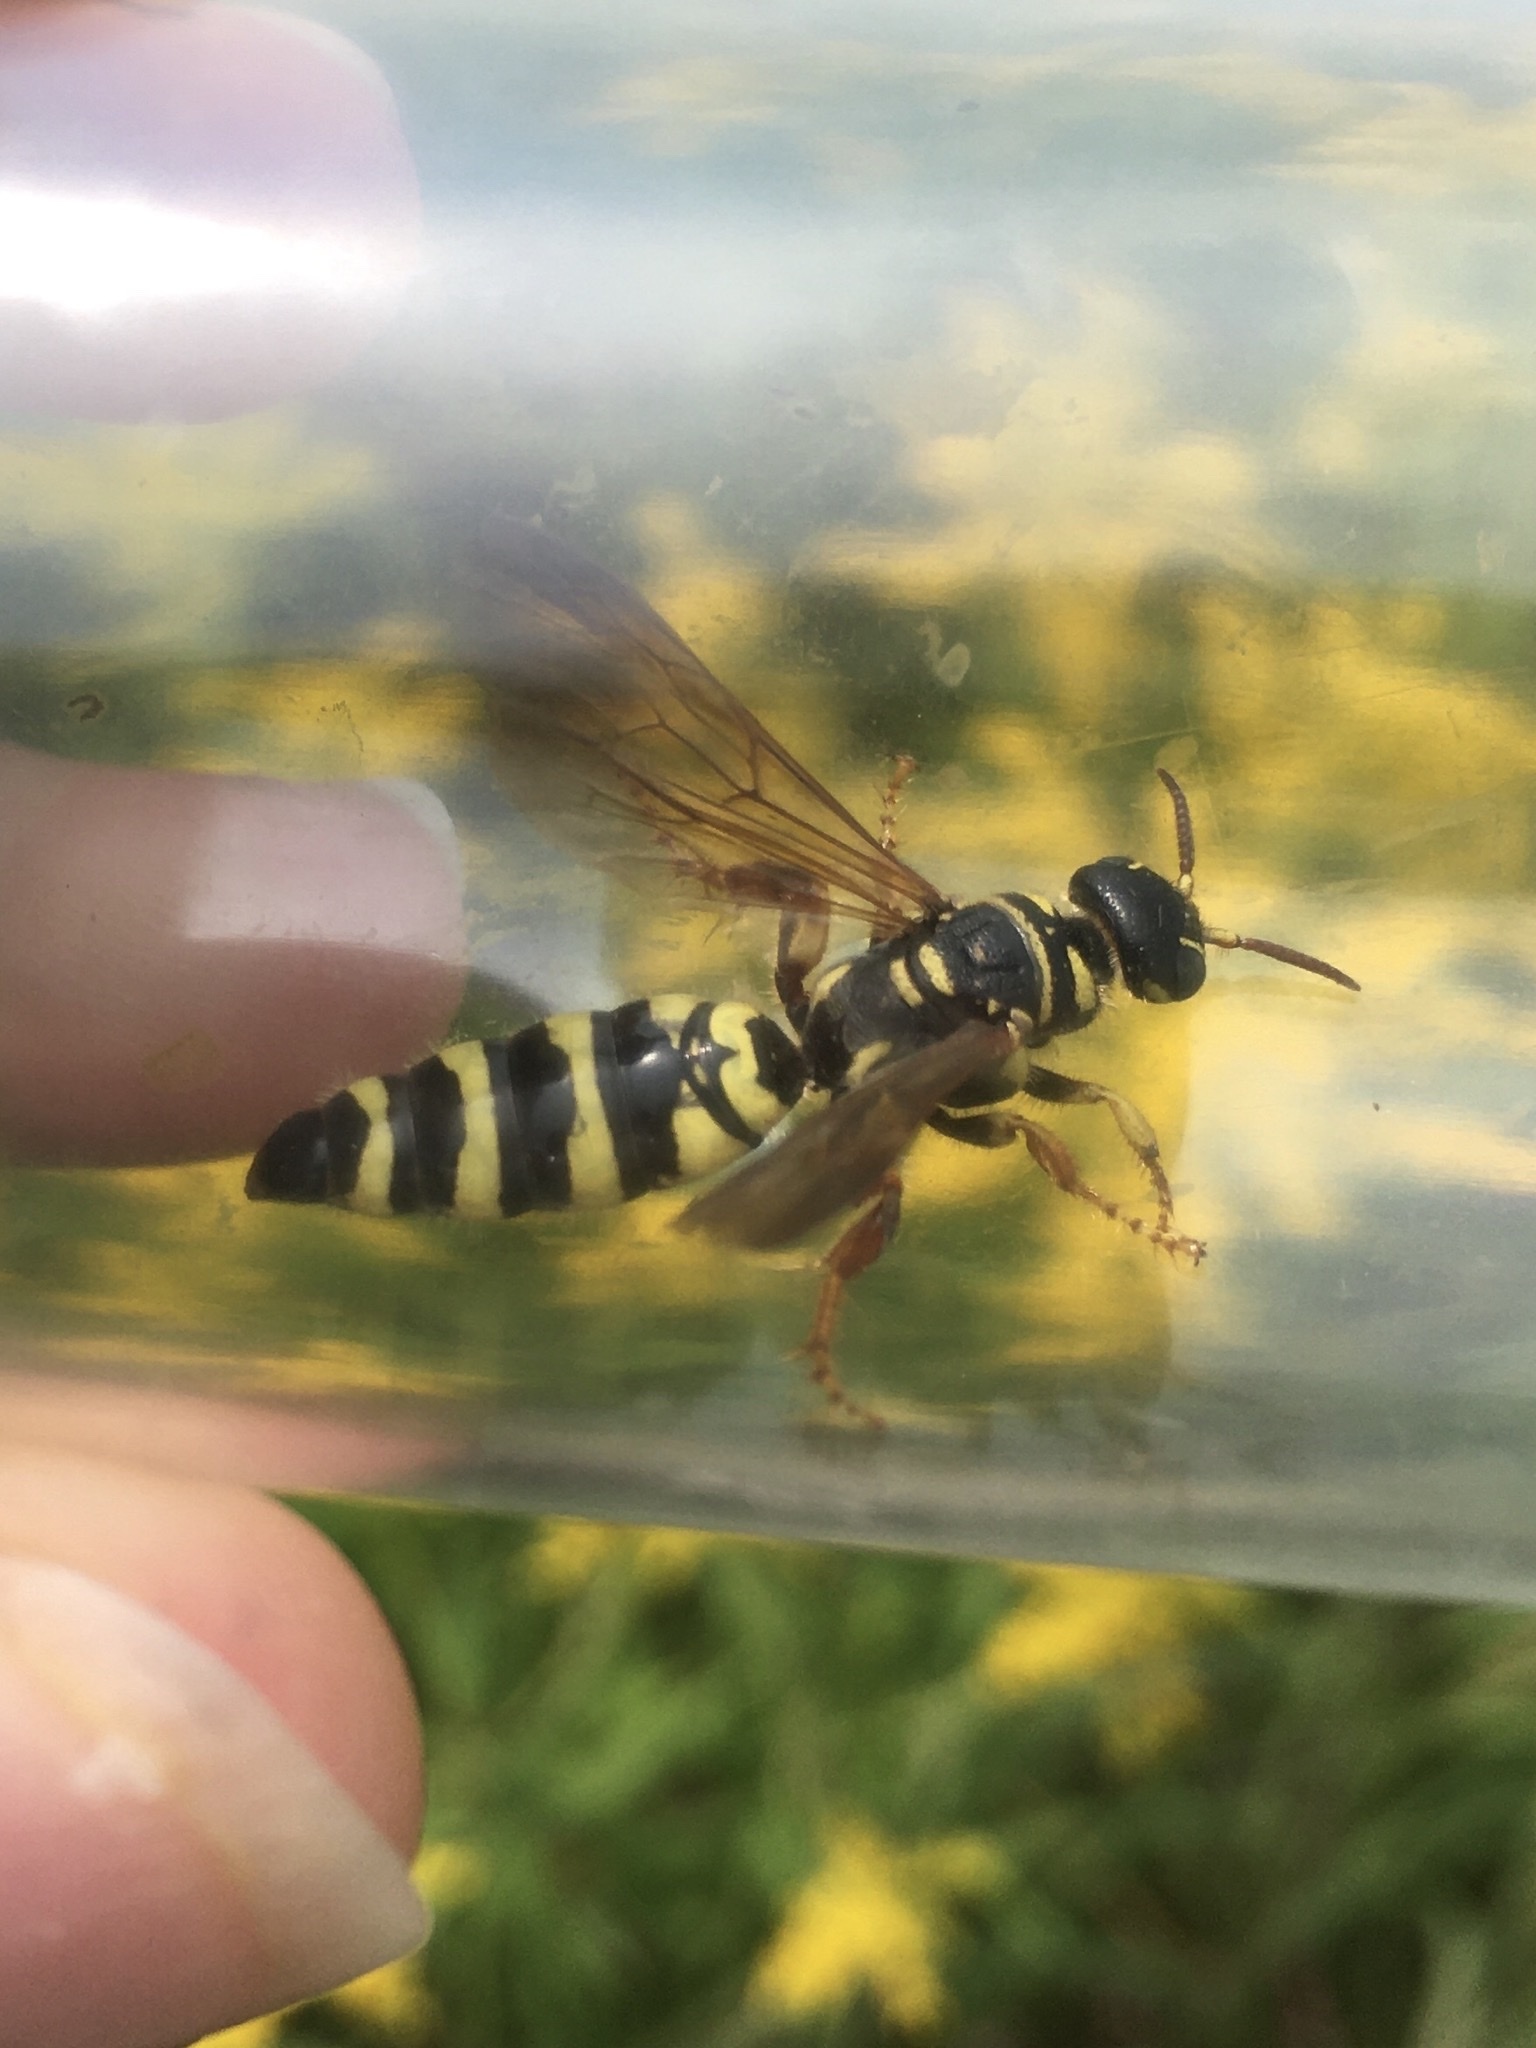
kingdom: Animalia
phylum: Arthropoda
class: Insecta
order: Hymenoptera
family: Tiphiidae
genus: Myzinum
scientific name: Myzinum quinquecinctum
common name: Five-banded thynnid wasp
